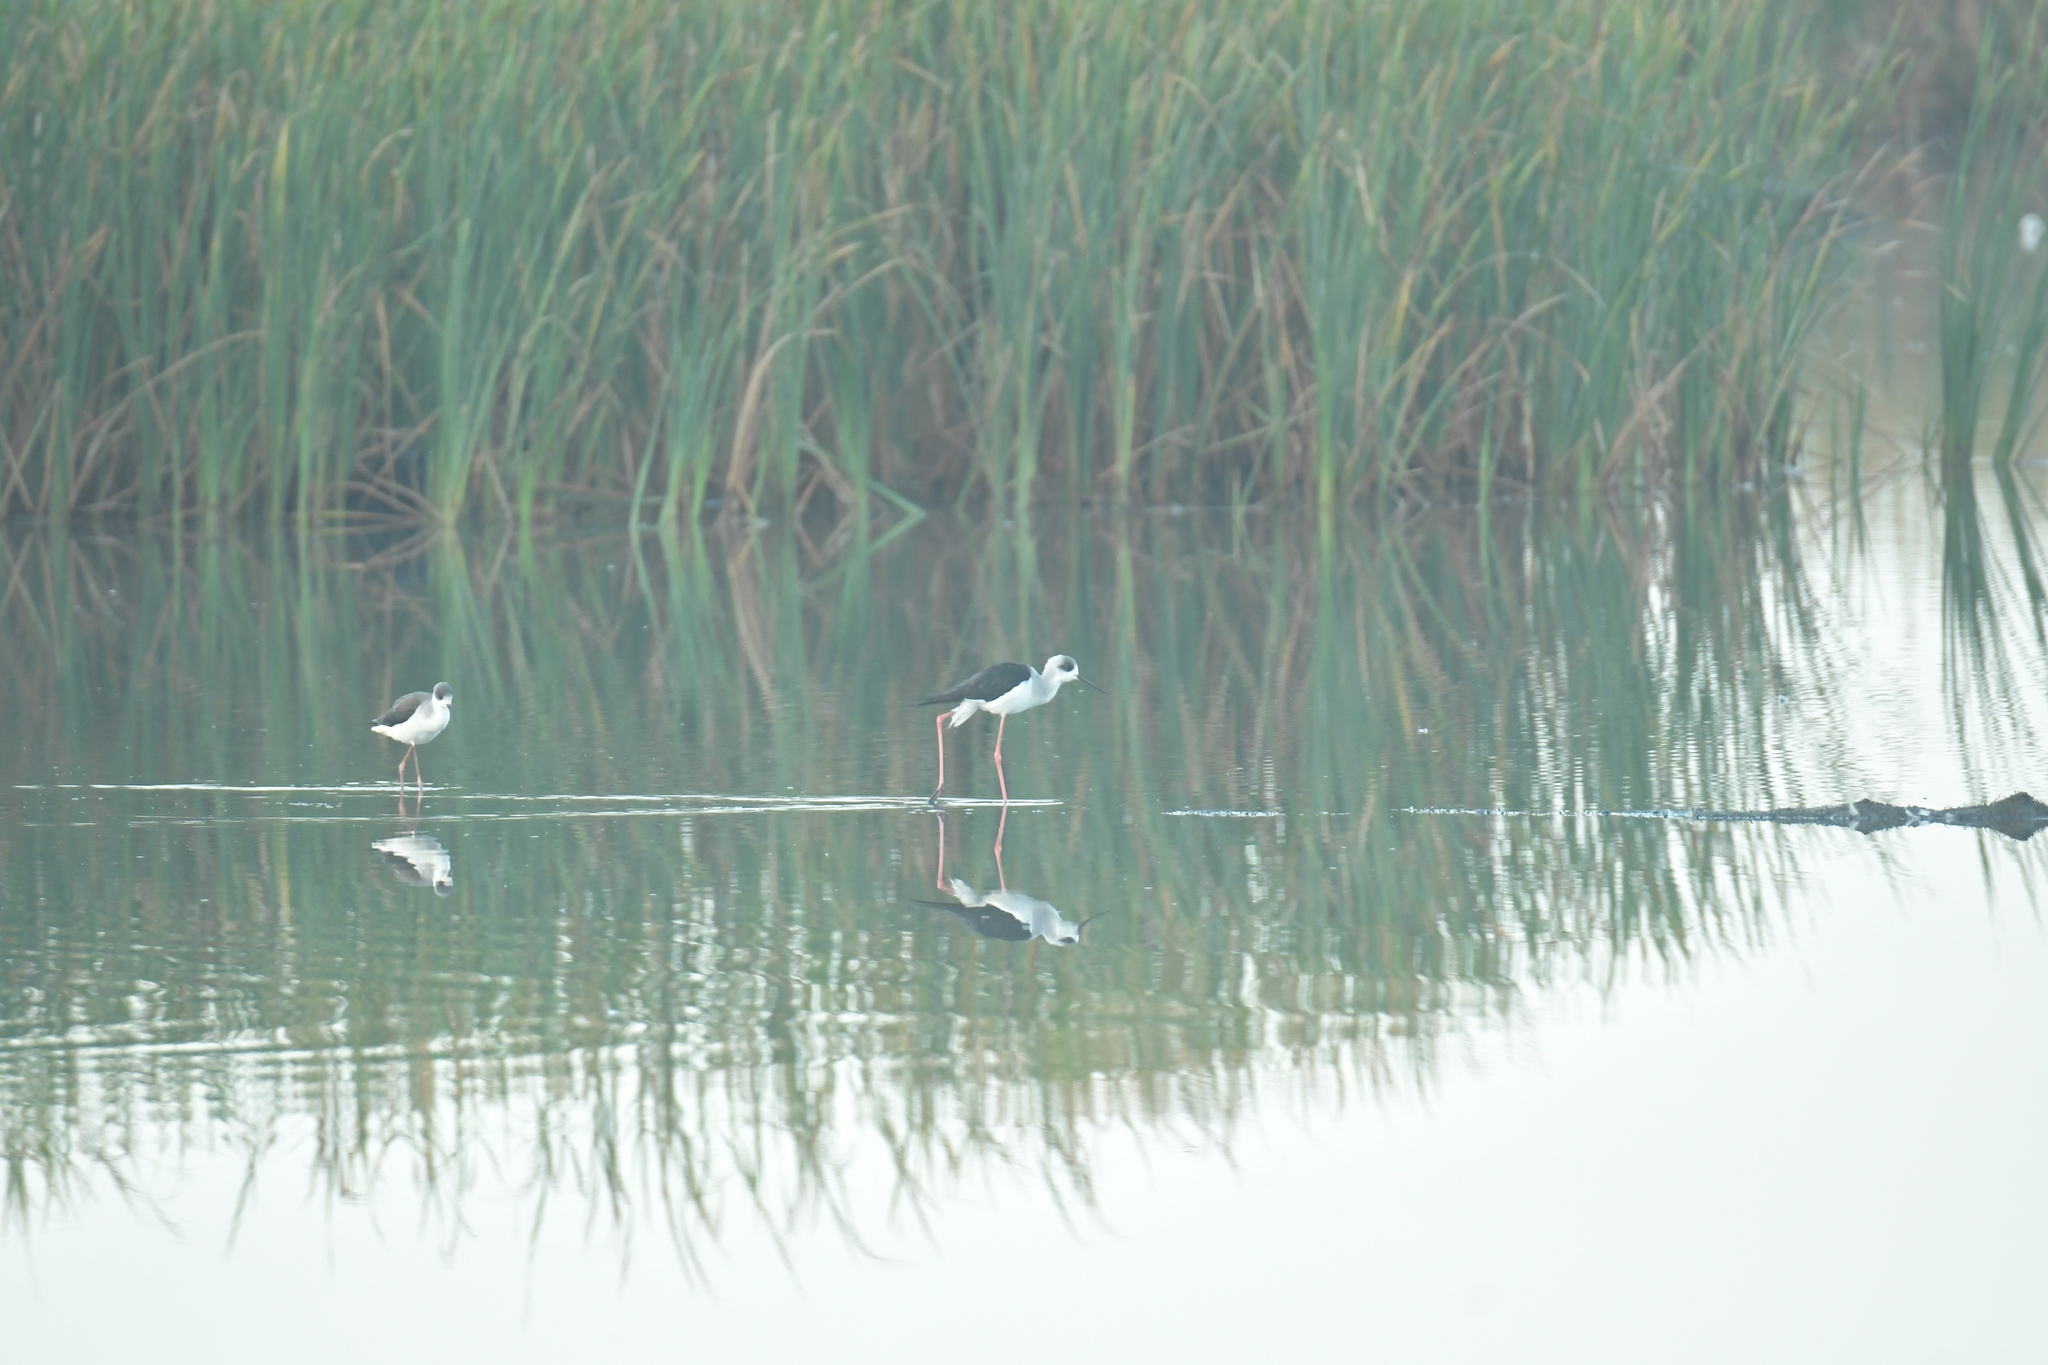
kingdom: Animalia
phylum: Chordata
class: Aves
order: Charadriiformes
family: Recurvirostridae
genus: Himantopus
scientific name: Himantopus himantopus
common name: Black-winged stilt
